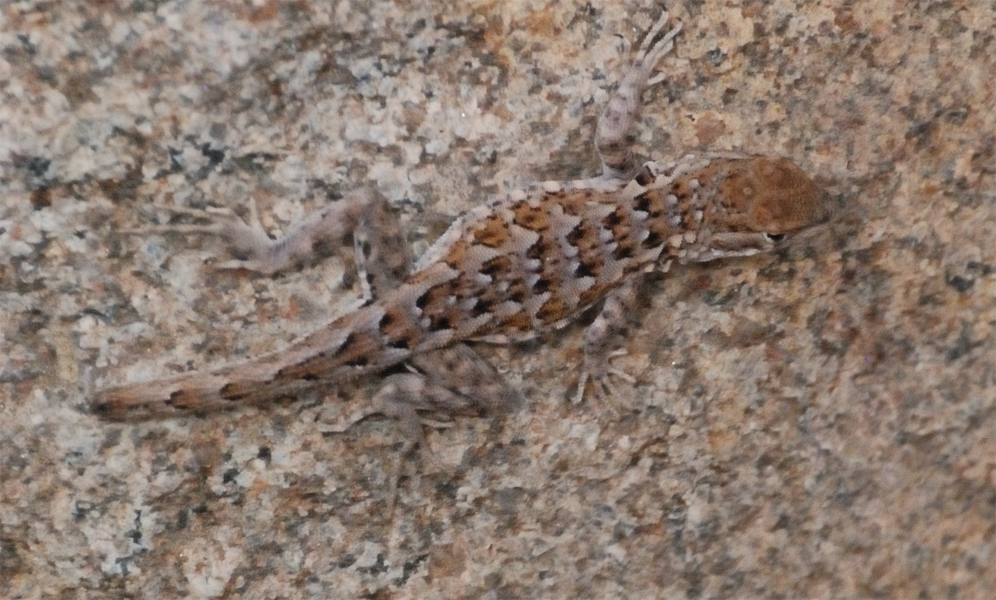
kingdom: Animalia
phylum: Chordata
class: Squamata
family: Phrynosomatidae
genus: Uta
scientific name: Uta stansburiana
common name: Side-blotched lizard
